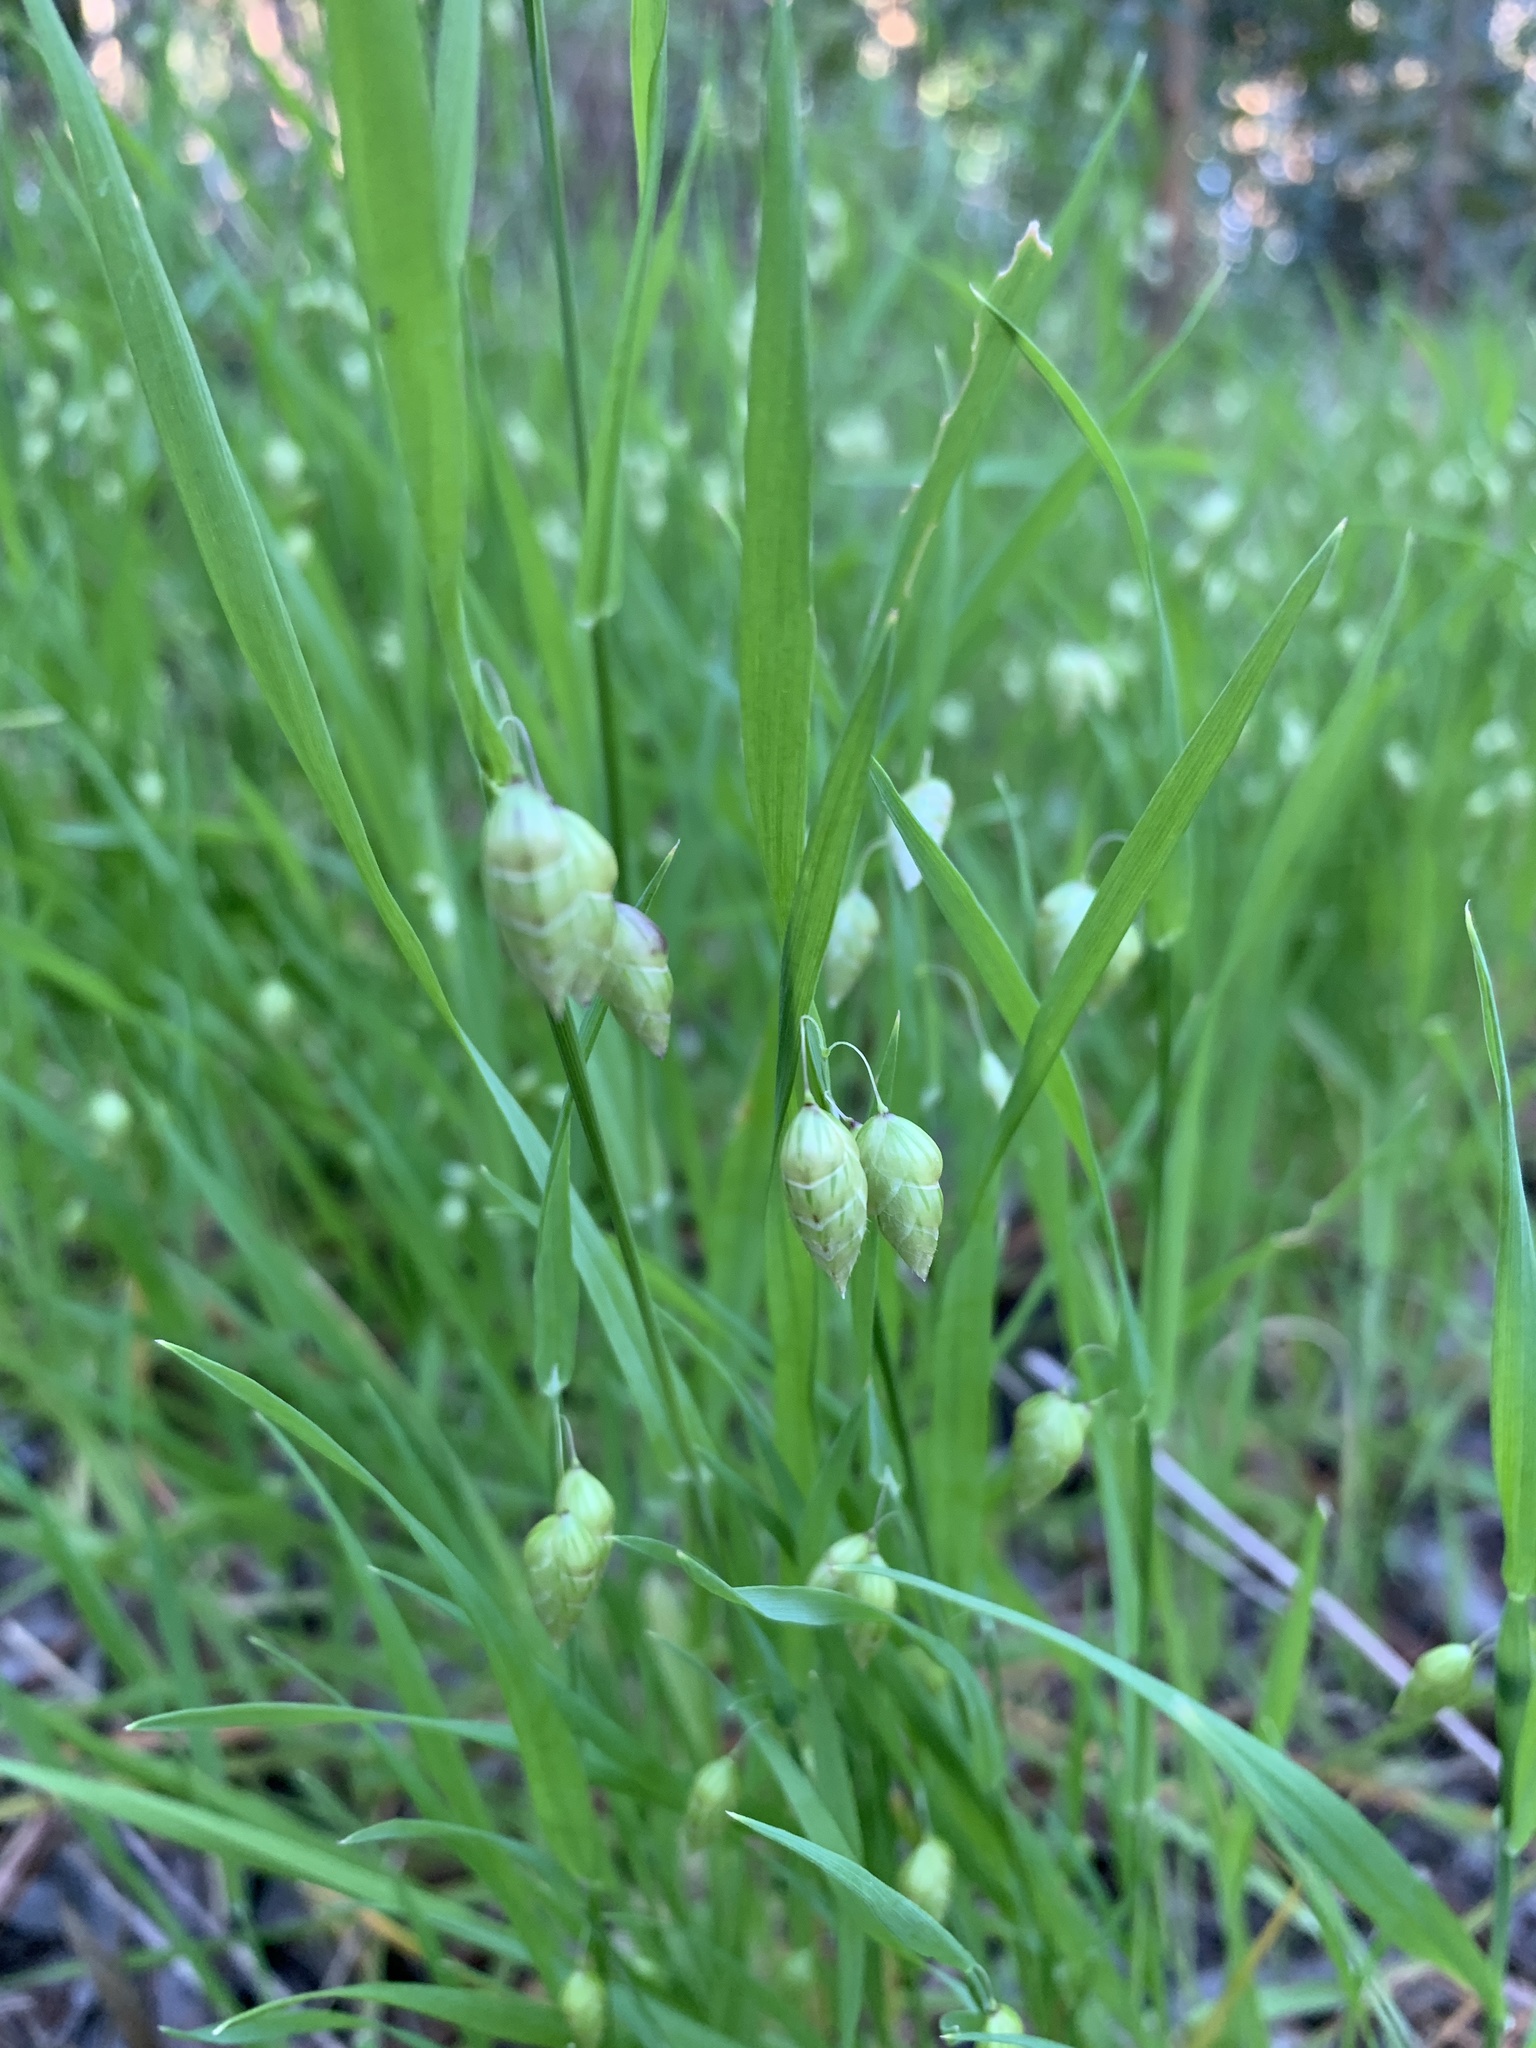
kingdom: Plantae
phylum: Tracheophyta
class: Liliopsida
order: Poales
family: Poaceae
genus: Briza
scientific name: Briza maxima
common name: Big quakinggrass
